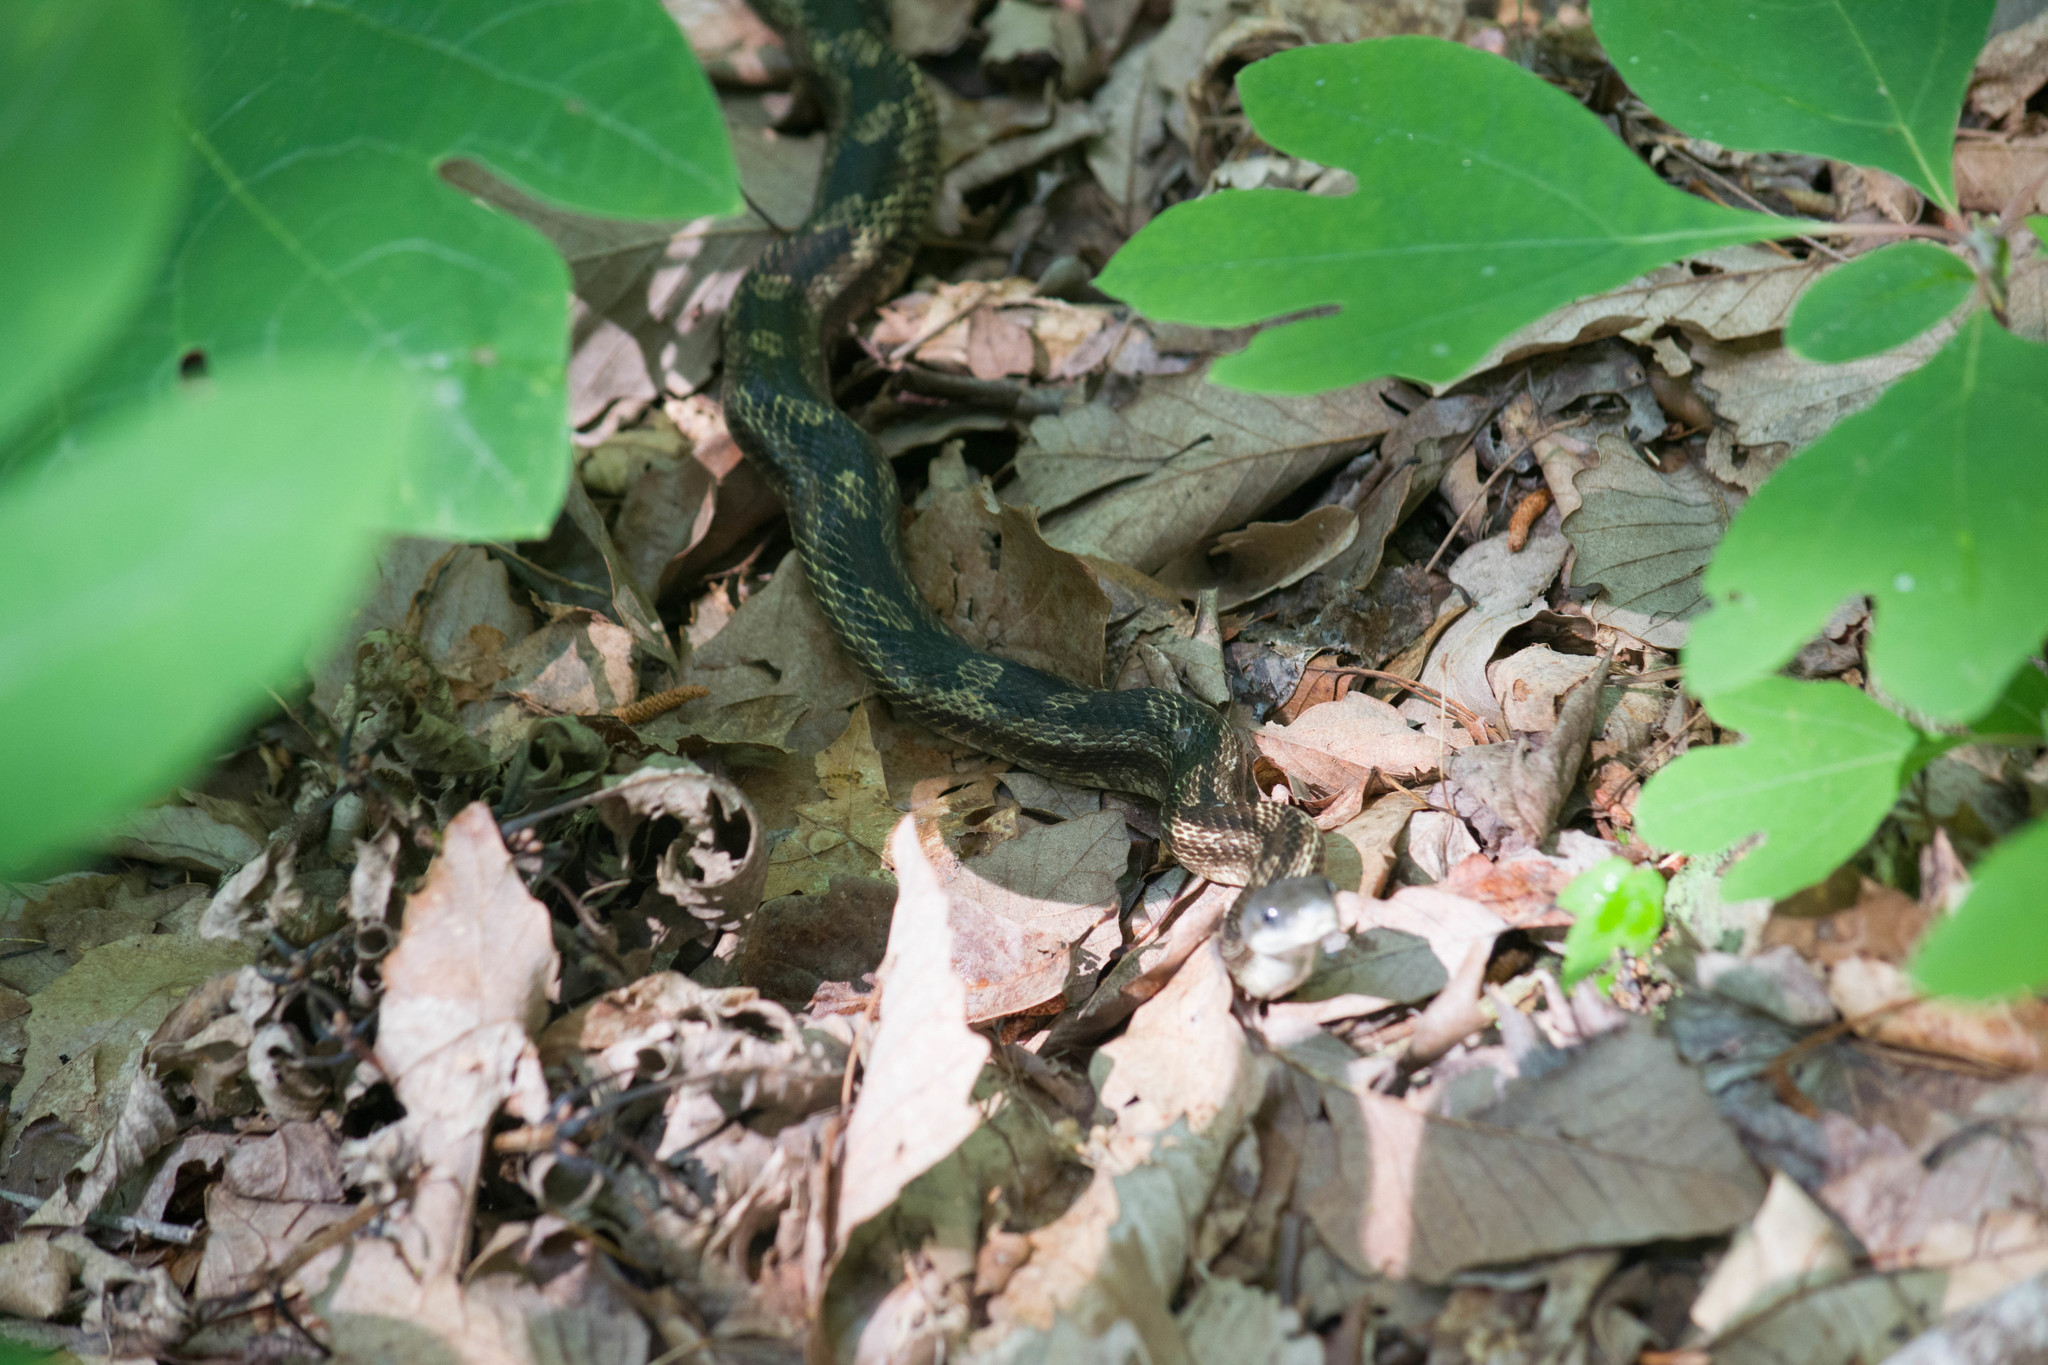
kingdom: Animalia
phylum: Chordata
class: Squamata
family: Colubridae
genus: Pantherophis
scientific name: Pantherophis spiloides
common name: Gray rat snake
